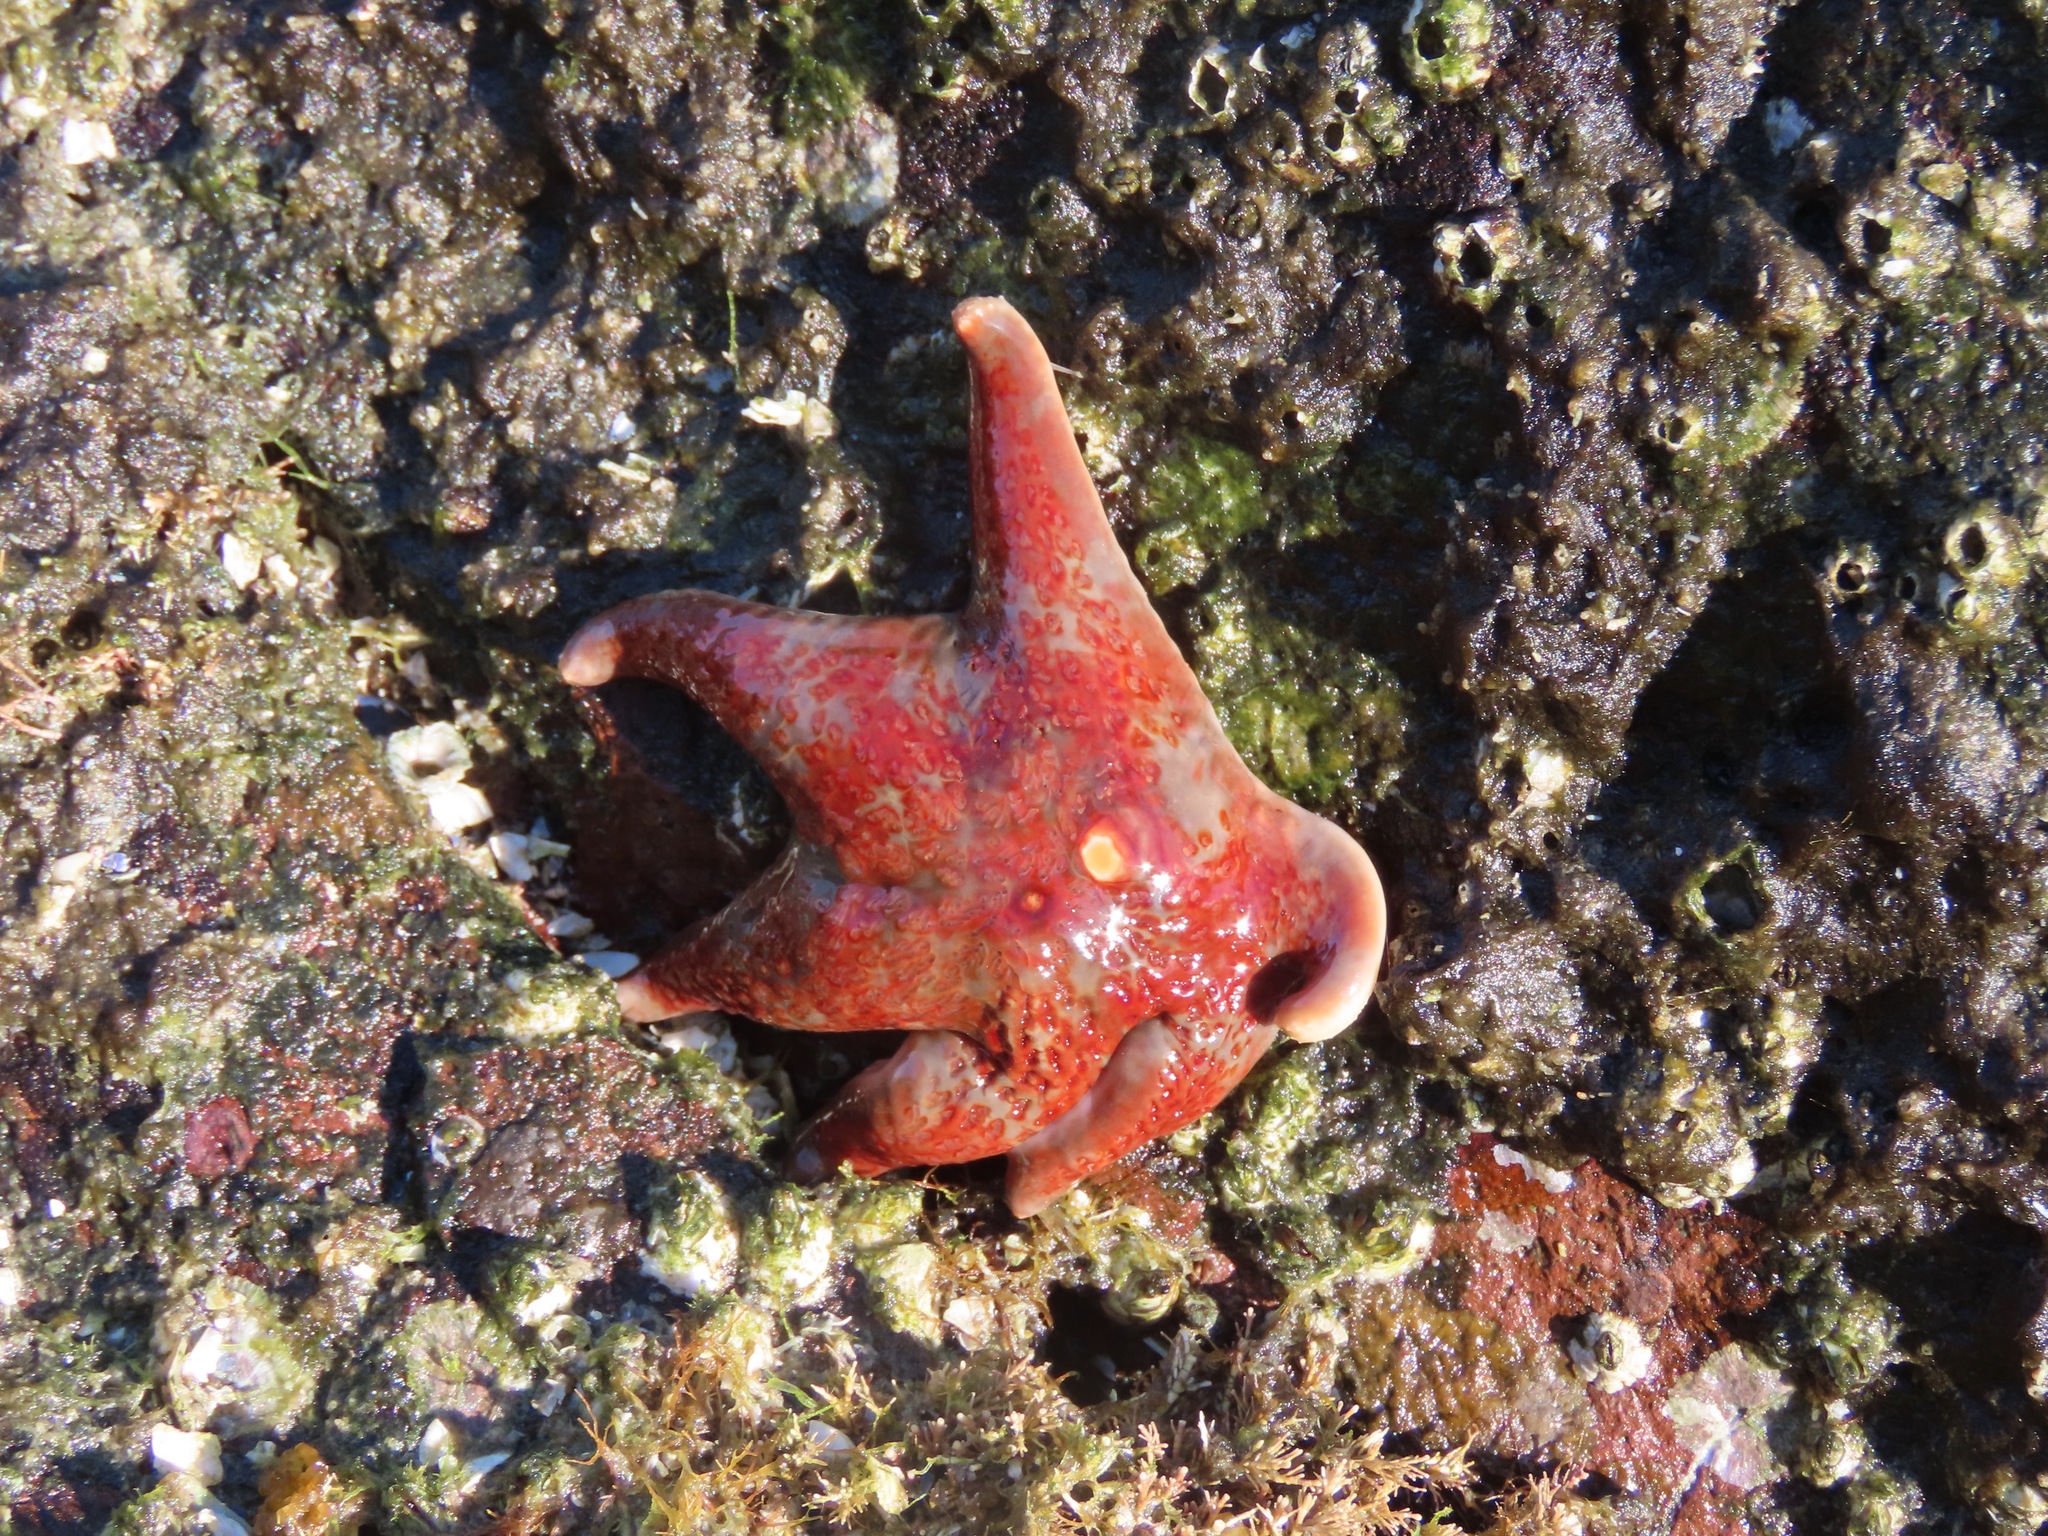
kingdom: Animalia
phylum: Echinodermata
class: Asteroidea
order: Valvatida
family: Asteropseidae
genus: Dermasterias
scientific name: Dermasterias imbricata
